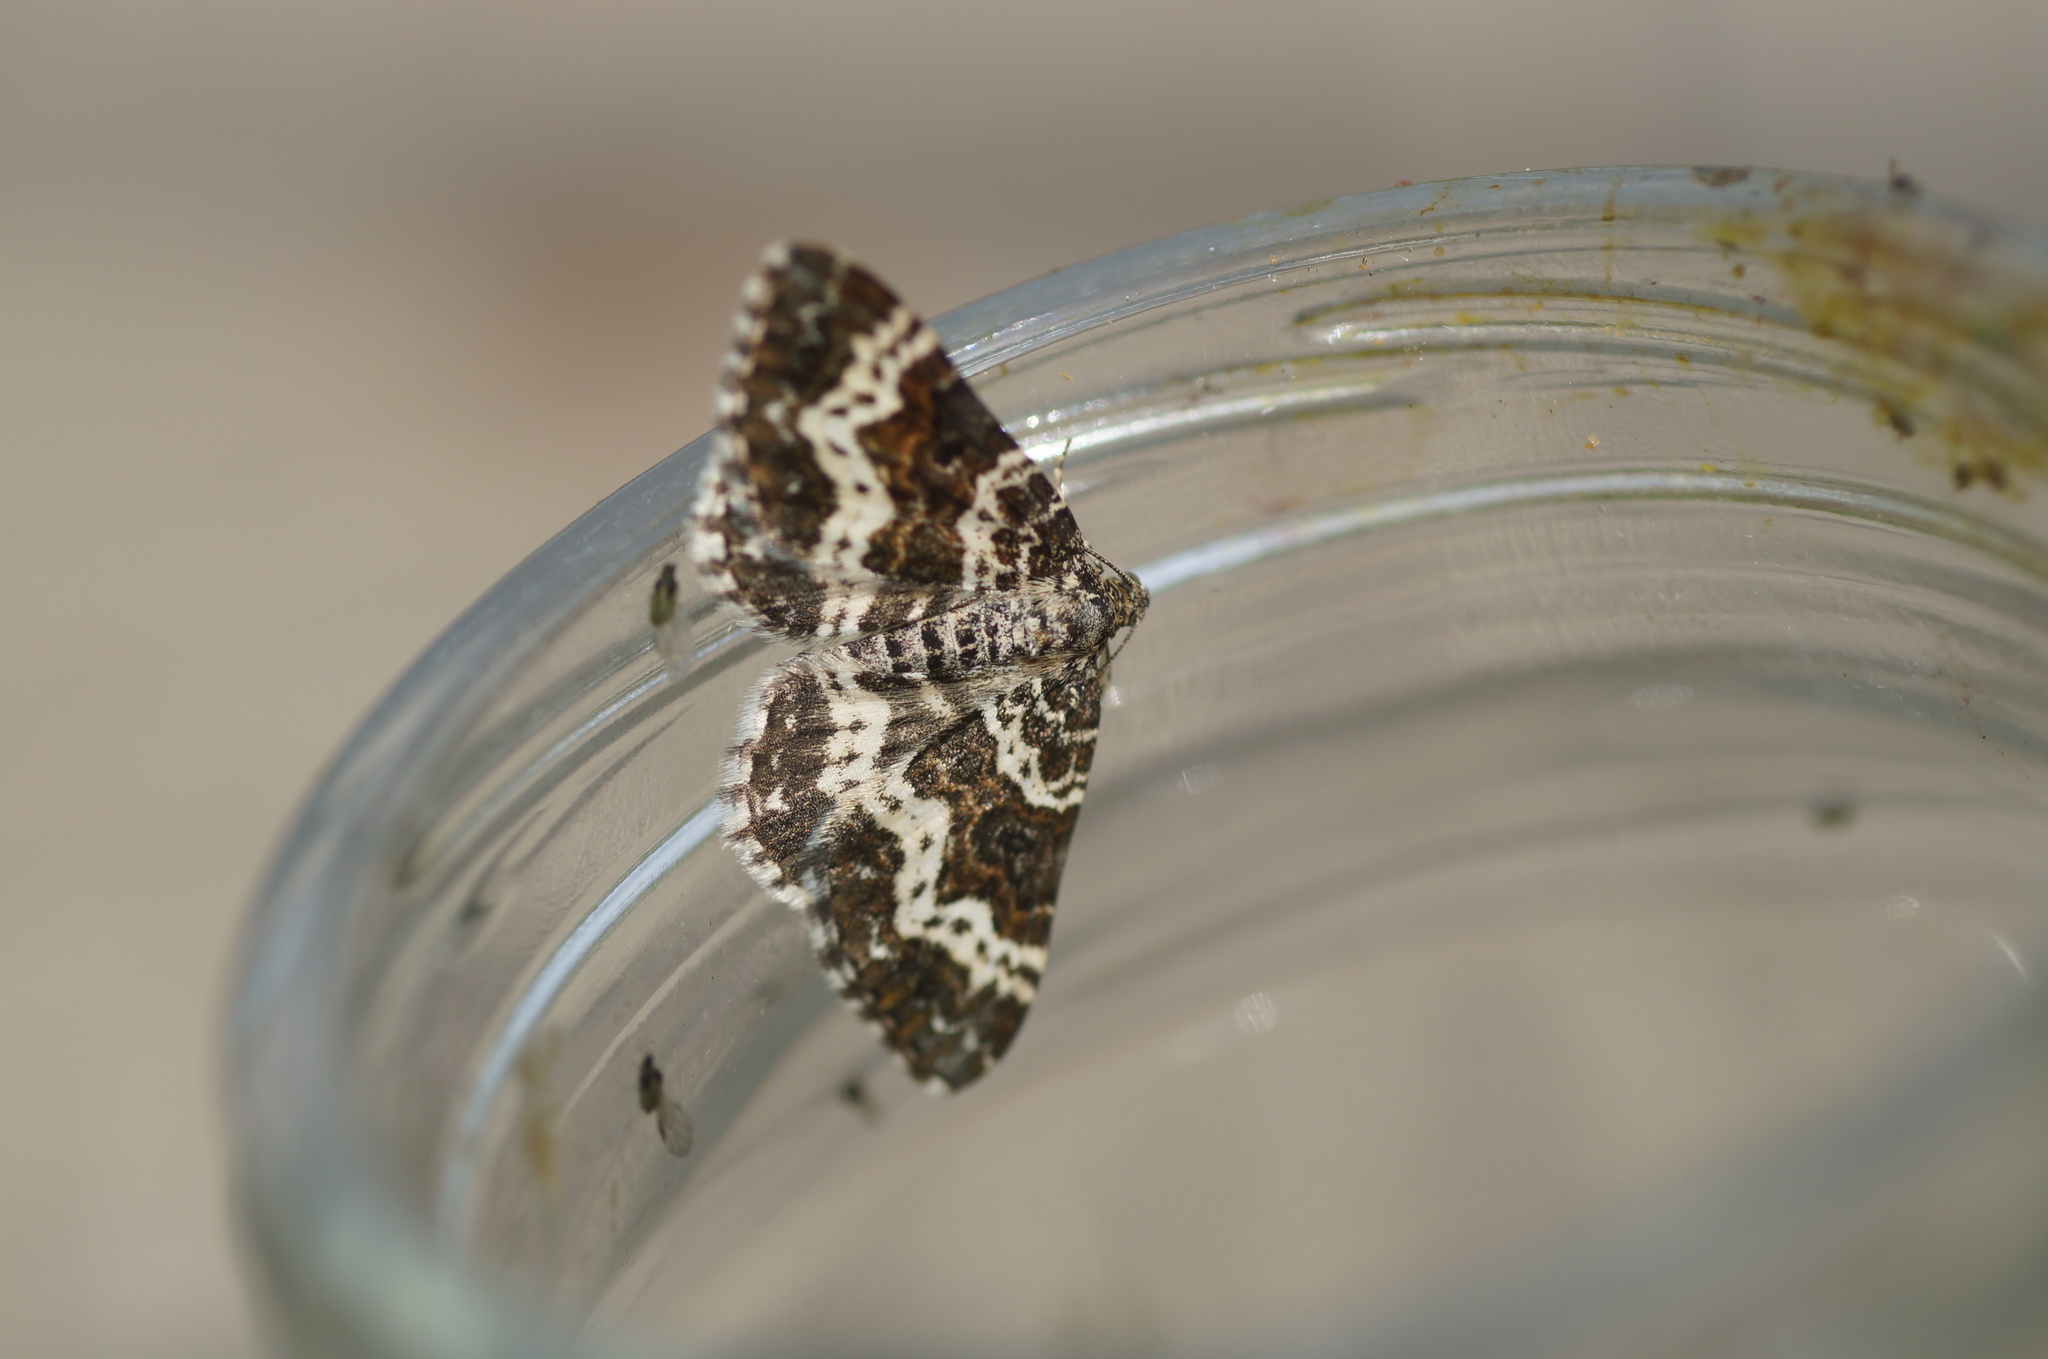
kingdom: Animalia
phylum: Arthropoda
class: Insecta
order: Lepidoptera
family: Geometridae
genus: Epirrhoe
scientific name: Epirrhoe tristata
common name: Small argent & sable
